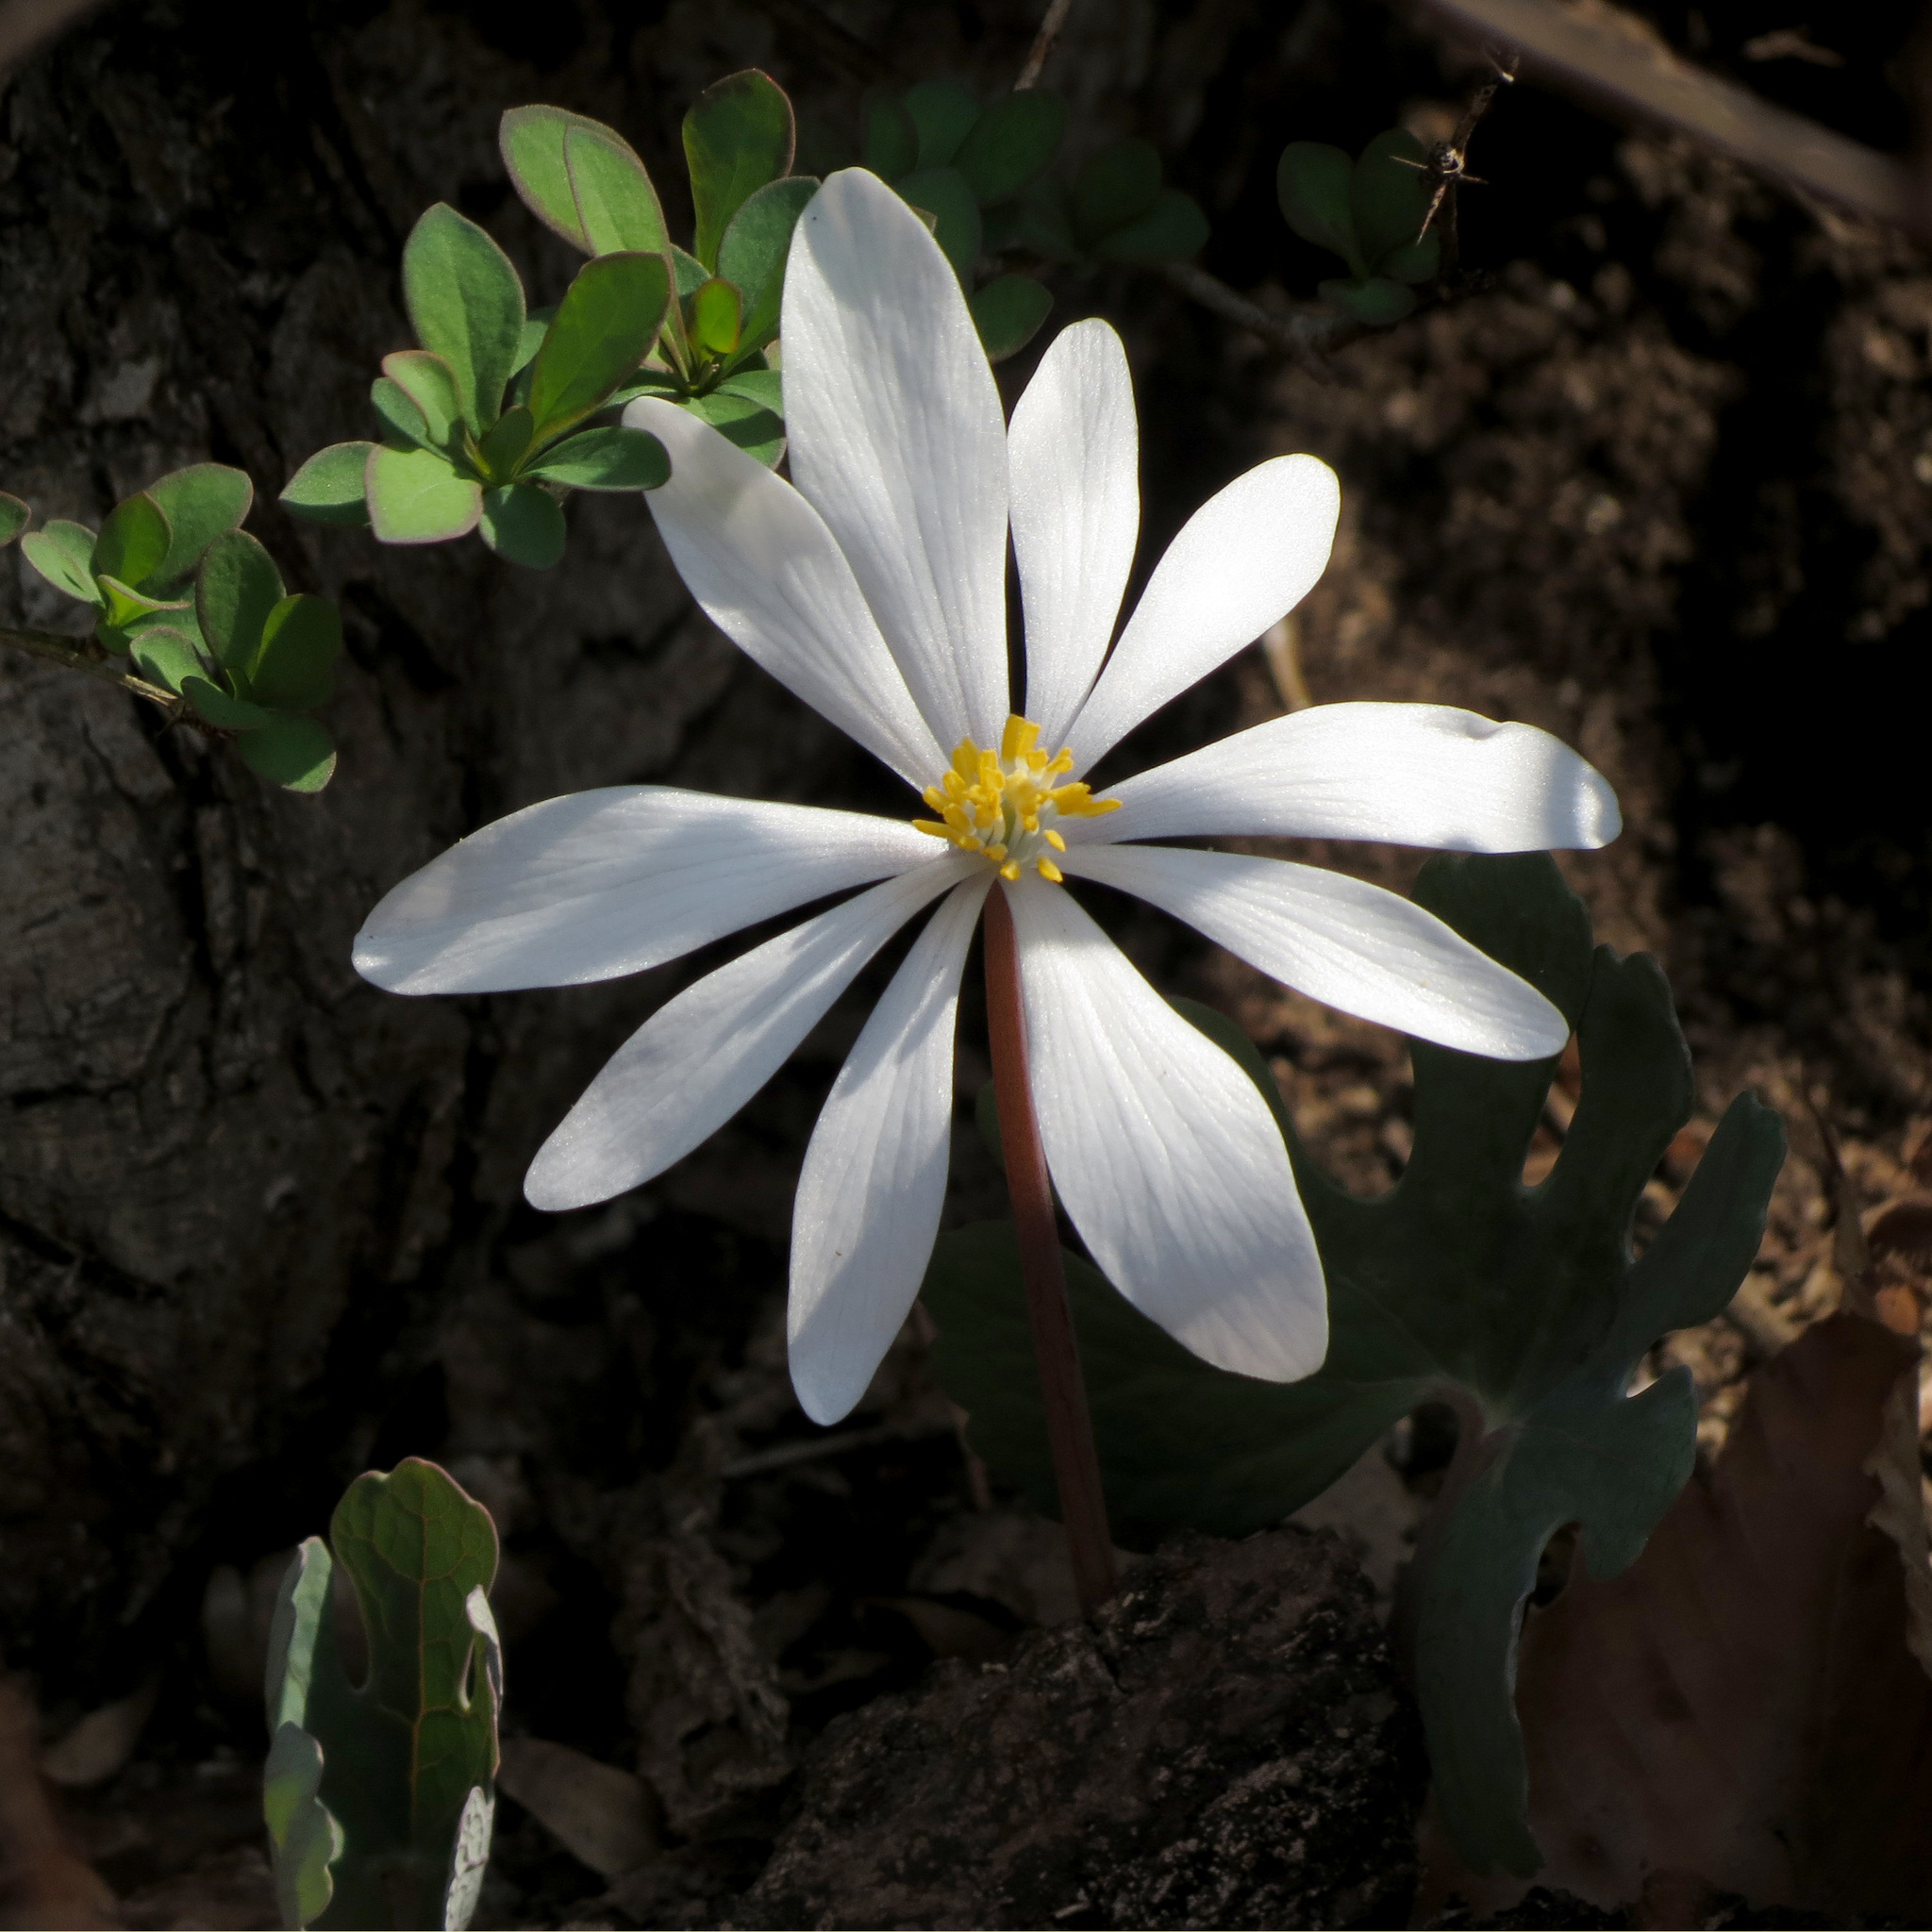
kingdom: Plantae
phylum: Tracheophyta
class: Magnoliopsida
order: Ranunculales
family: Papaveraceae
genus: Sanguinaria
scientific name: Sanguinaria canadensis
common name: Bloodroot
